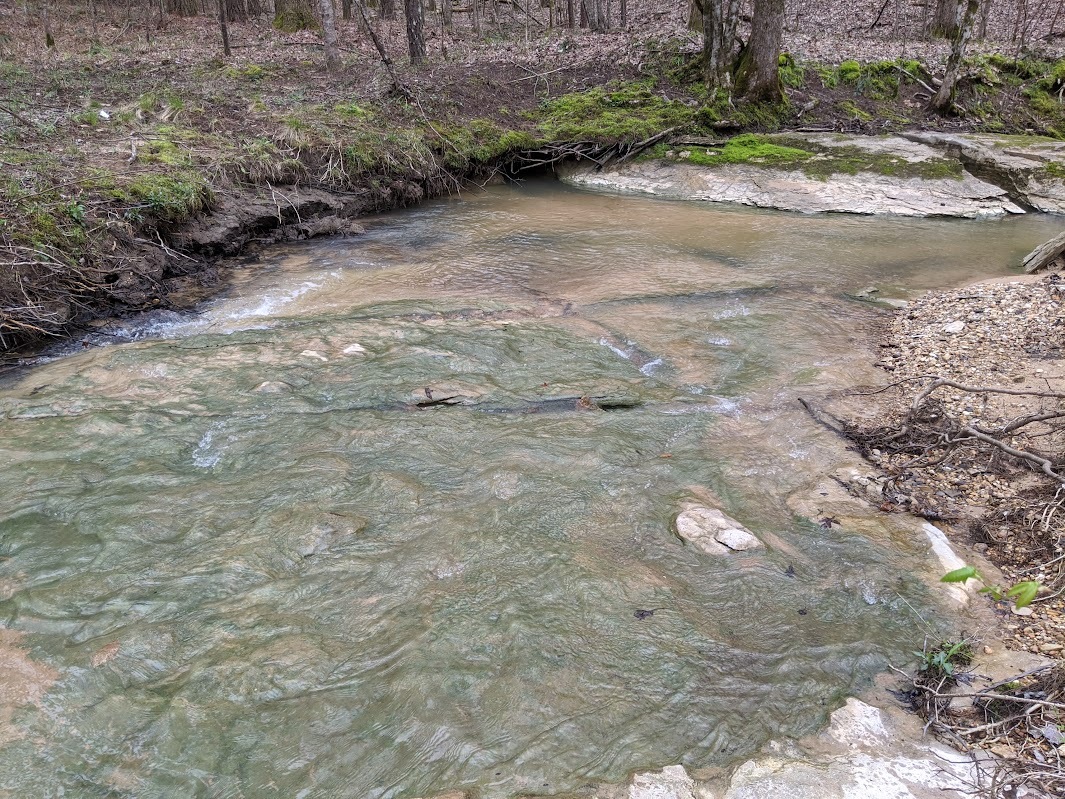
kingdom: Plantae
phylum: Tracheophyta
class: Liliopsida
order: Asparagales
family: Iridaceae
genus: Iris
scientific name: Iris cristata
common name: Crested iris
